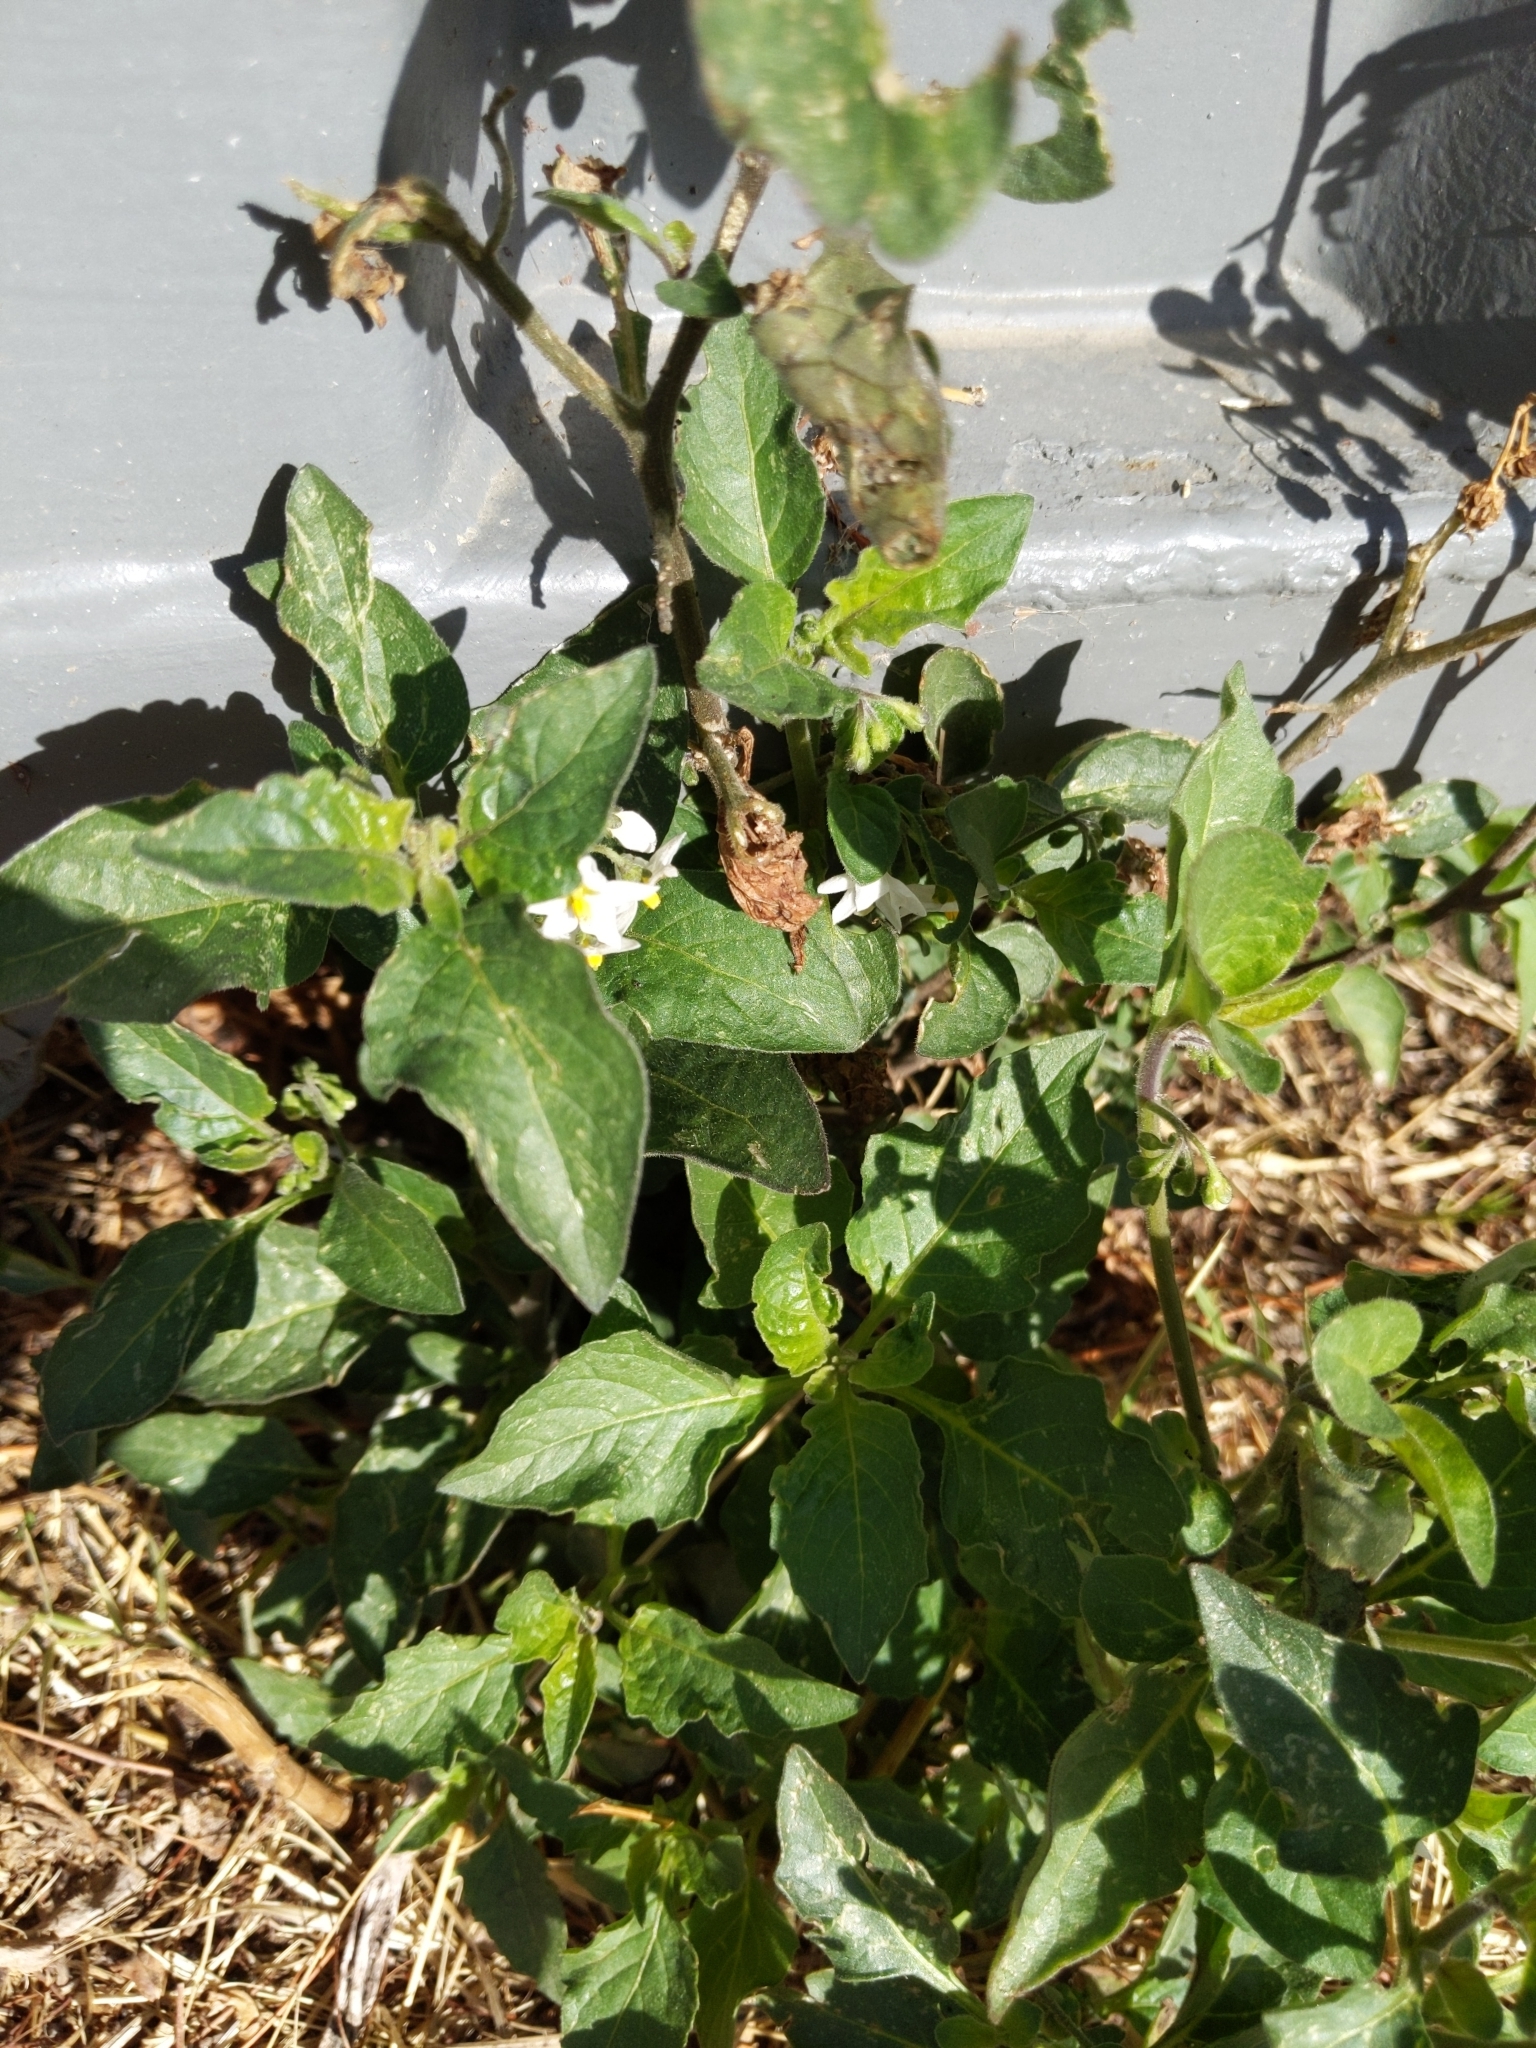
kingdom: Plantae
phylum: Tracheophyta
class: Magnoliopsida
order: Solanales
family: Solanaceae
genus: Solanum
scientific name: Solanum nigrum
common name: Black nightshade
